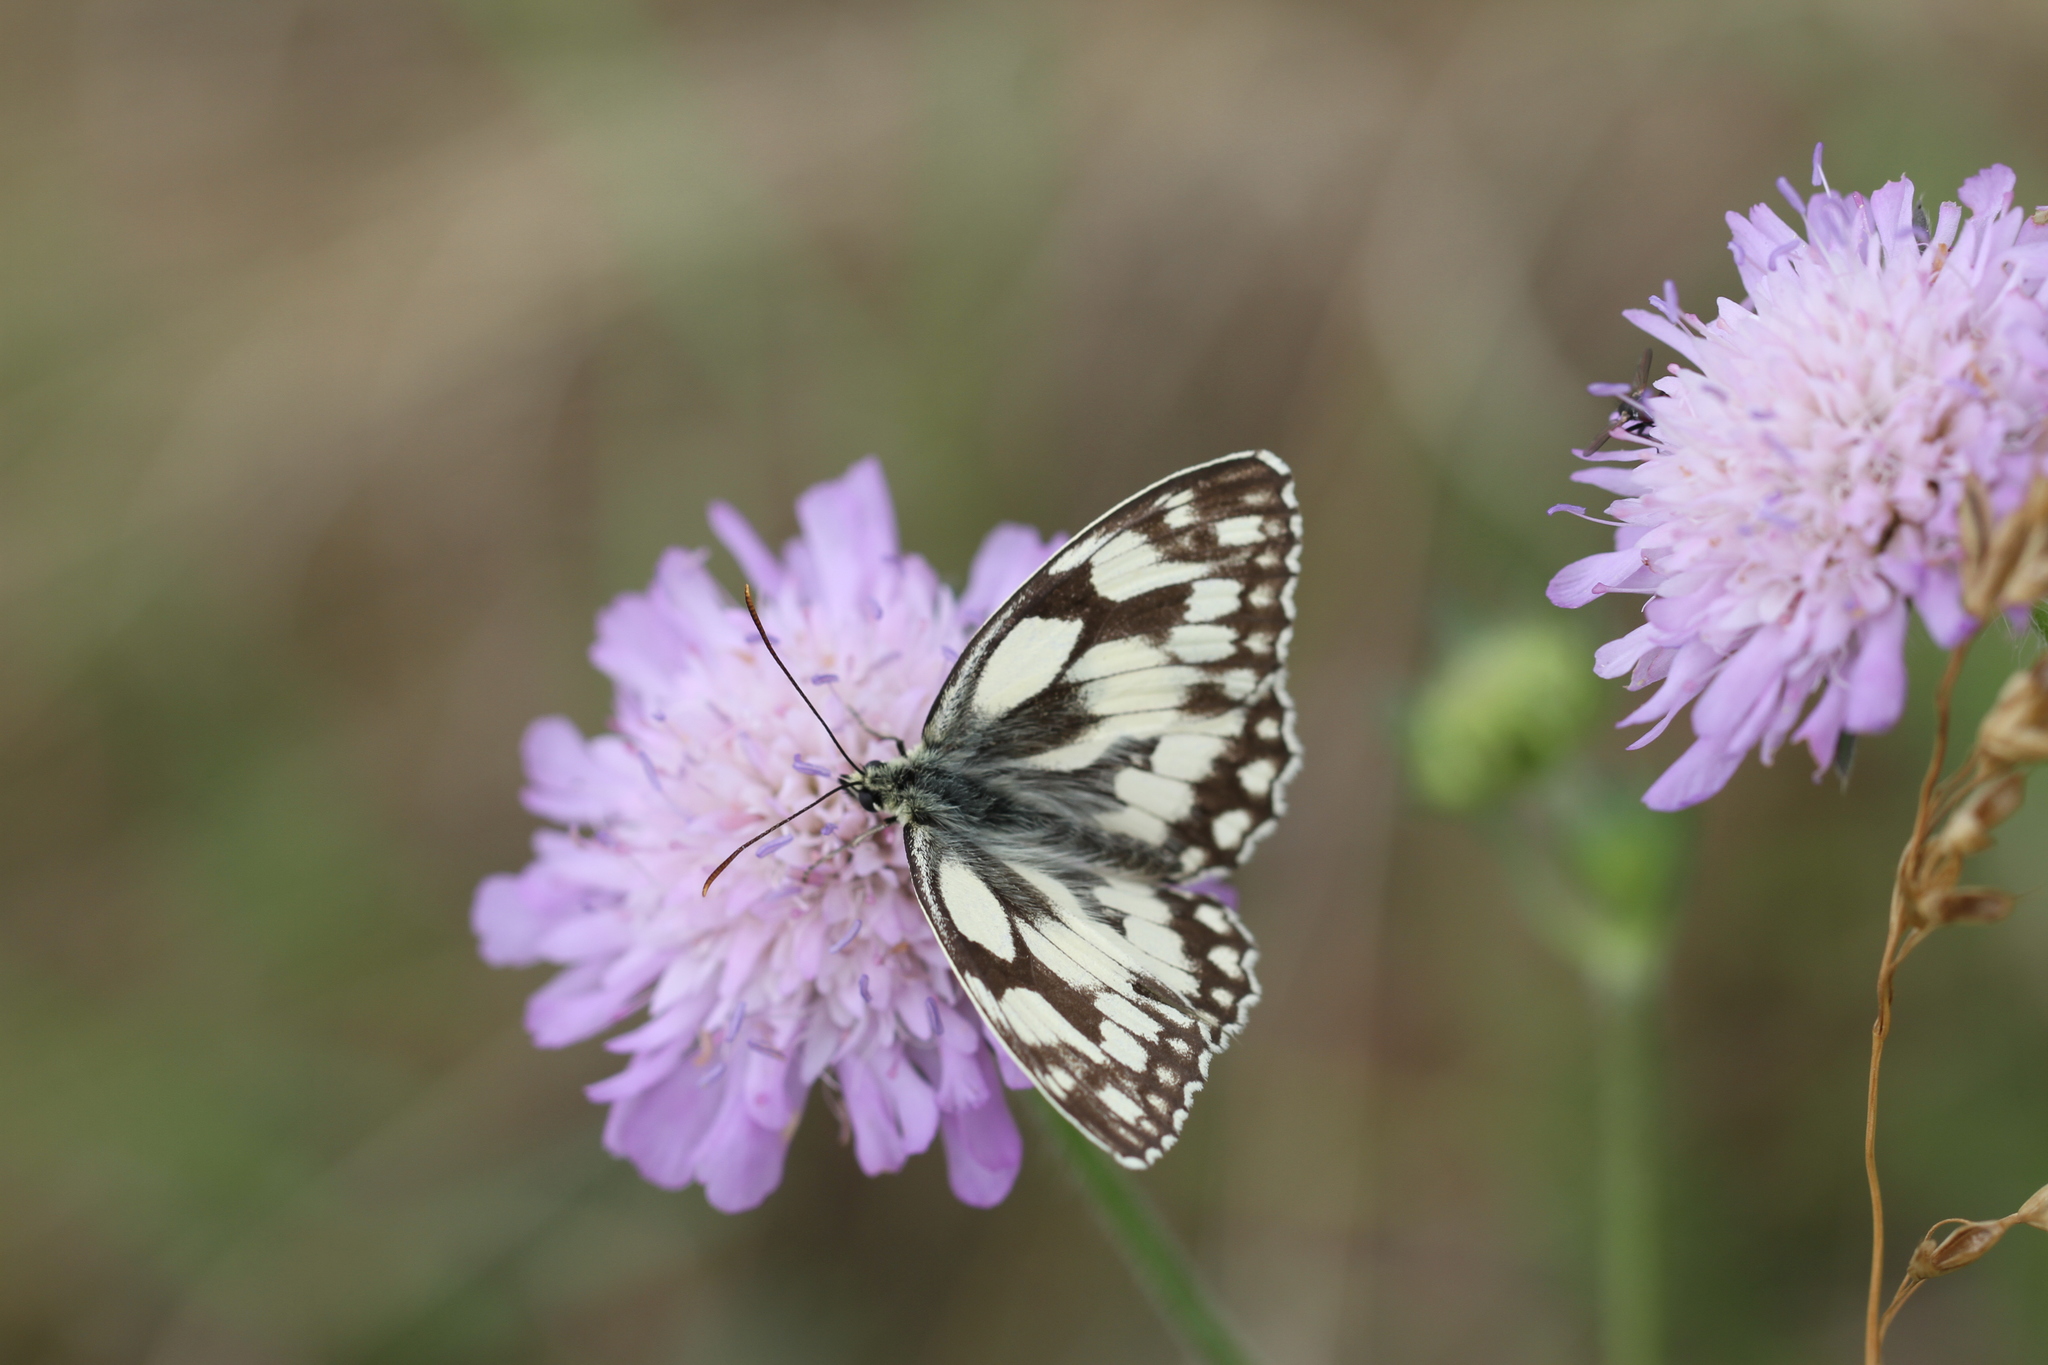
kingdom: Animalia
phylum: Arthropoda
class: Insecta
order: Lepidoptera
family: Nymphalidae
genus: Melanargia
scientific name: Melanargia galathea
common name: Marbled white
